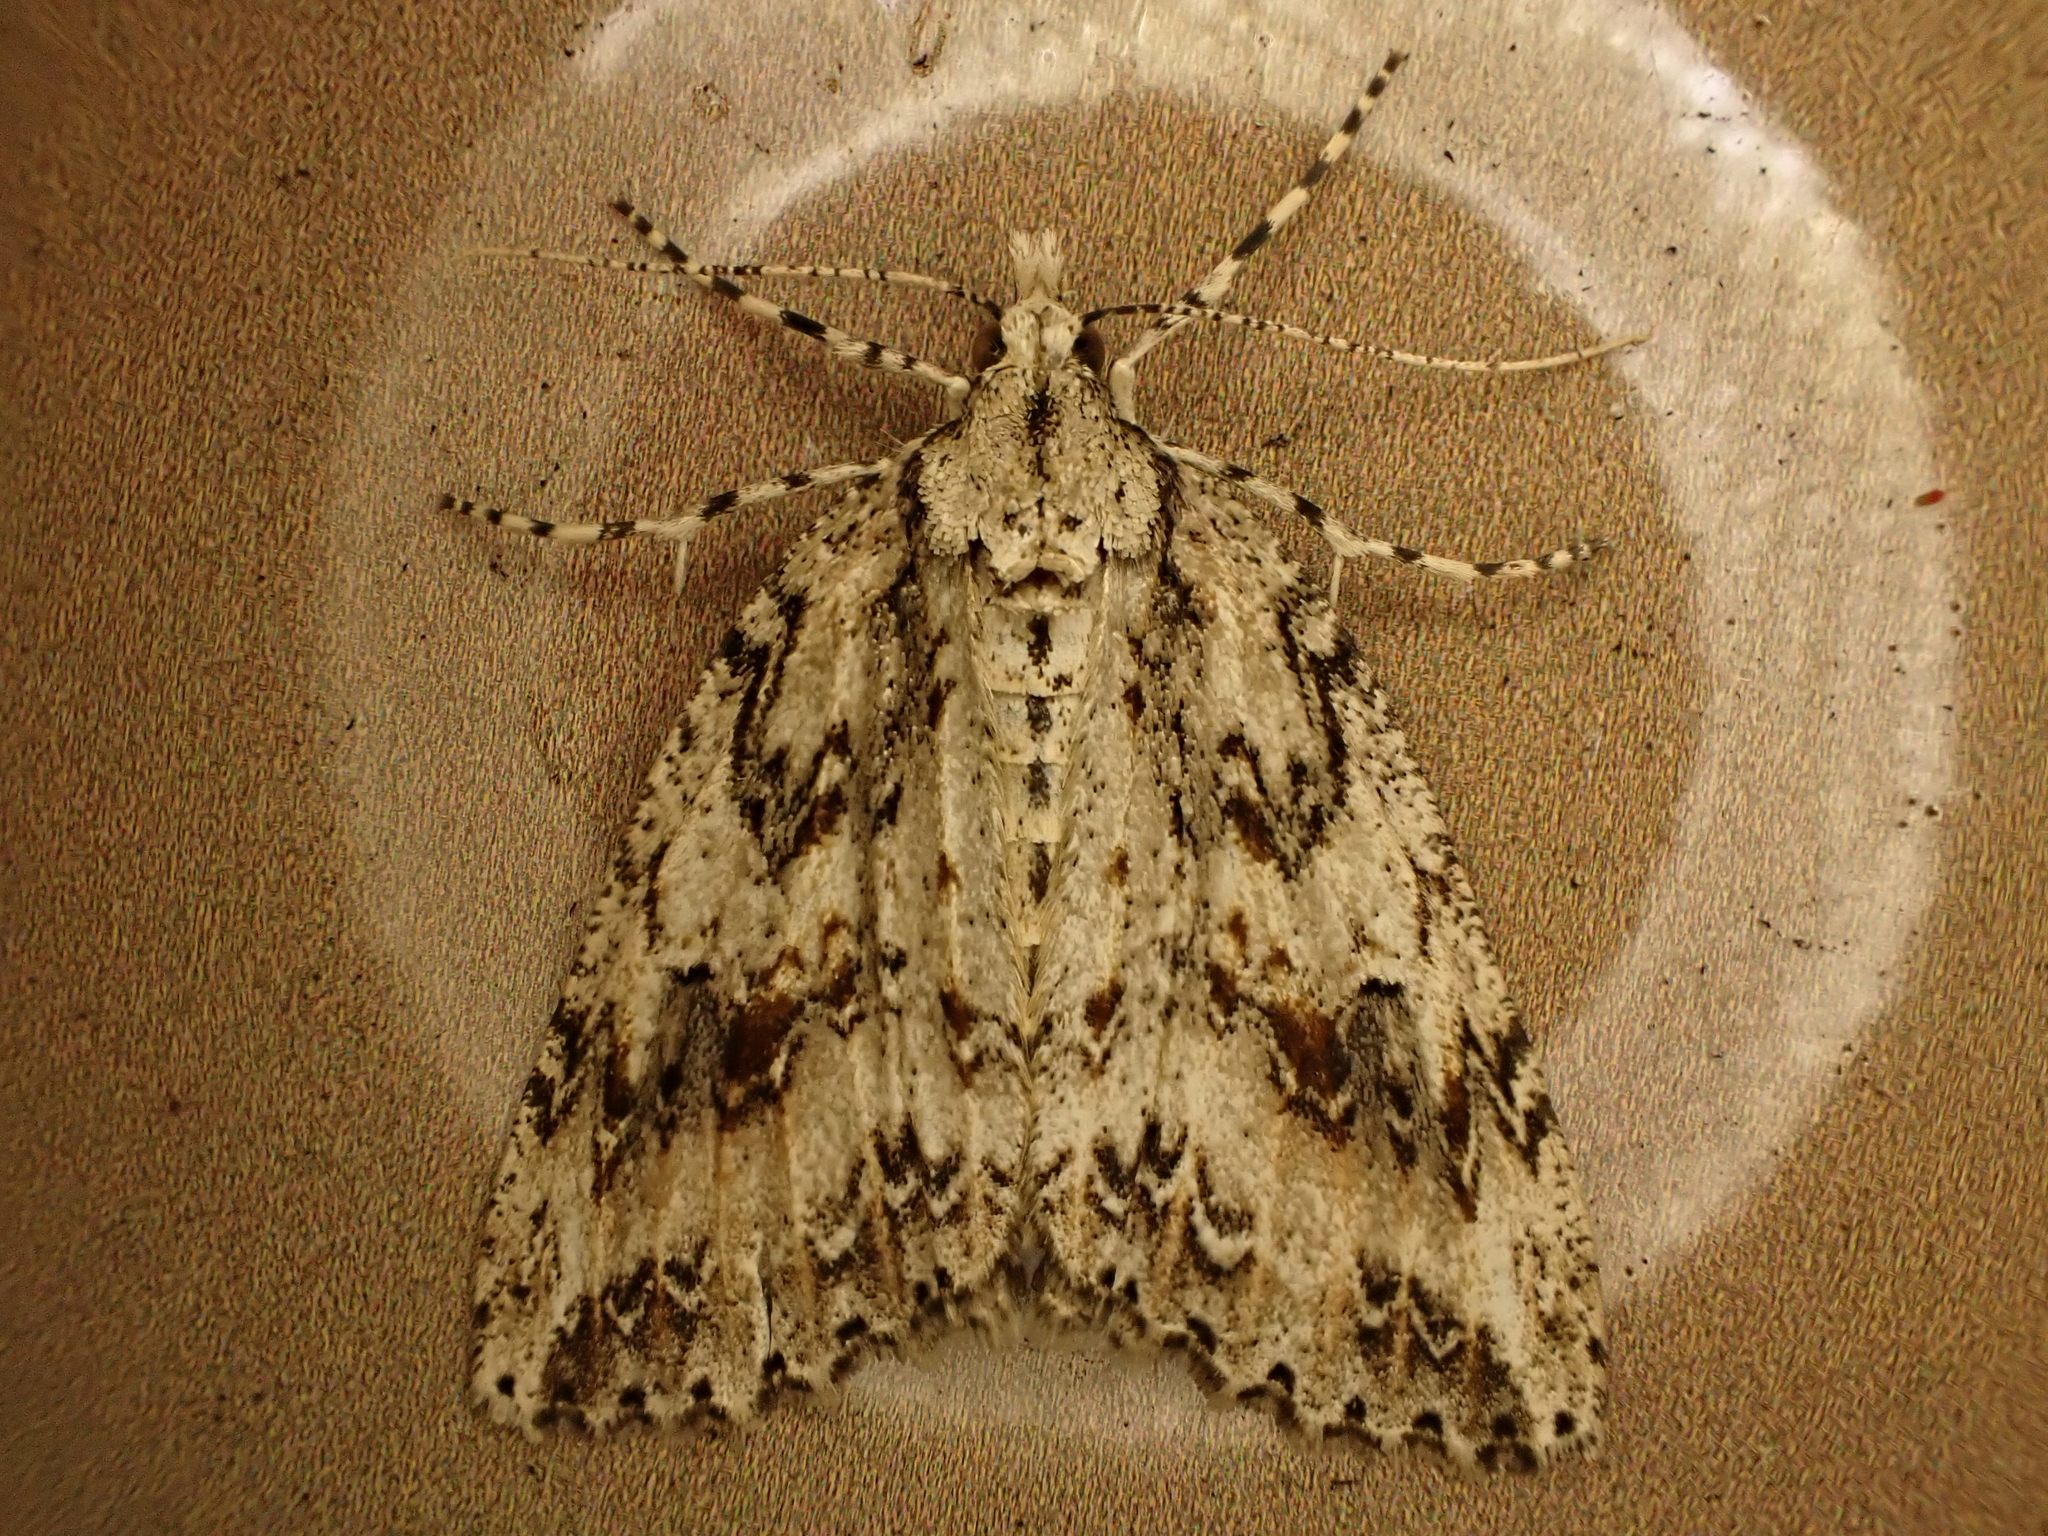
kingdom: Animalia
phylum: Arthropoda
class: Insecta
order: Lepidoptera
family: Geometridae
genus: Pseudocoremia
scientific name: Pseudocoremia rudisata
